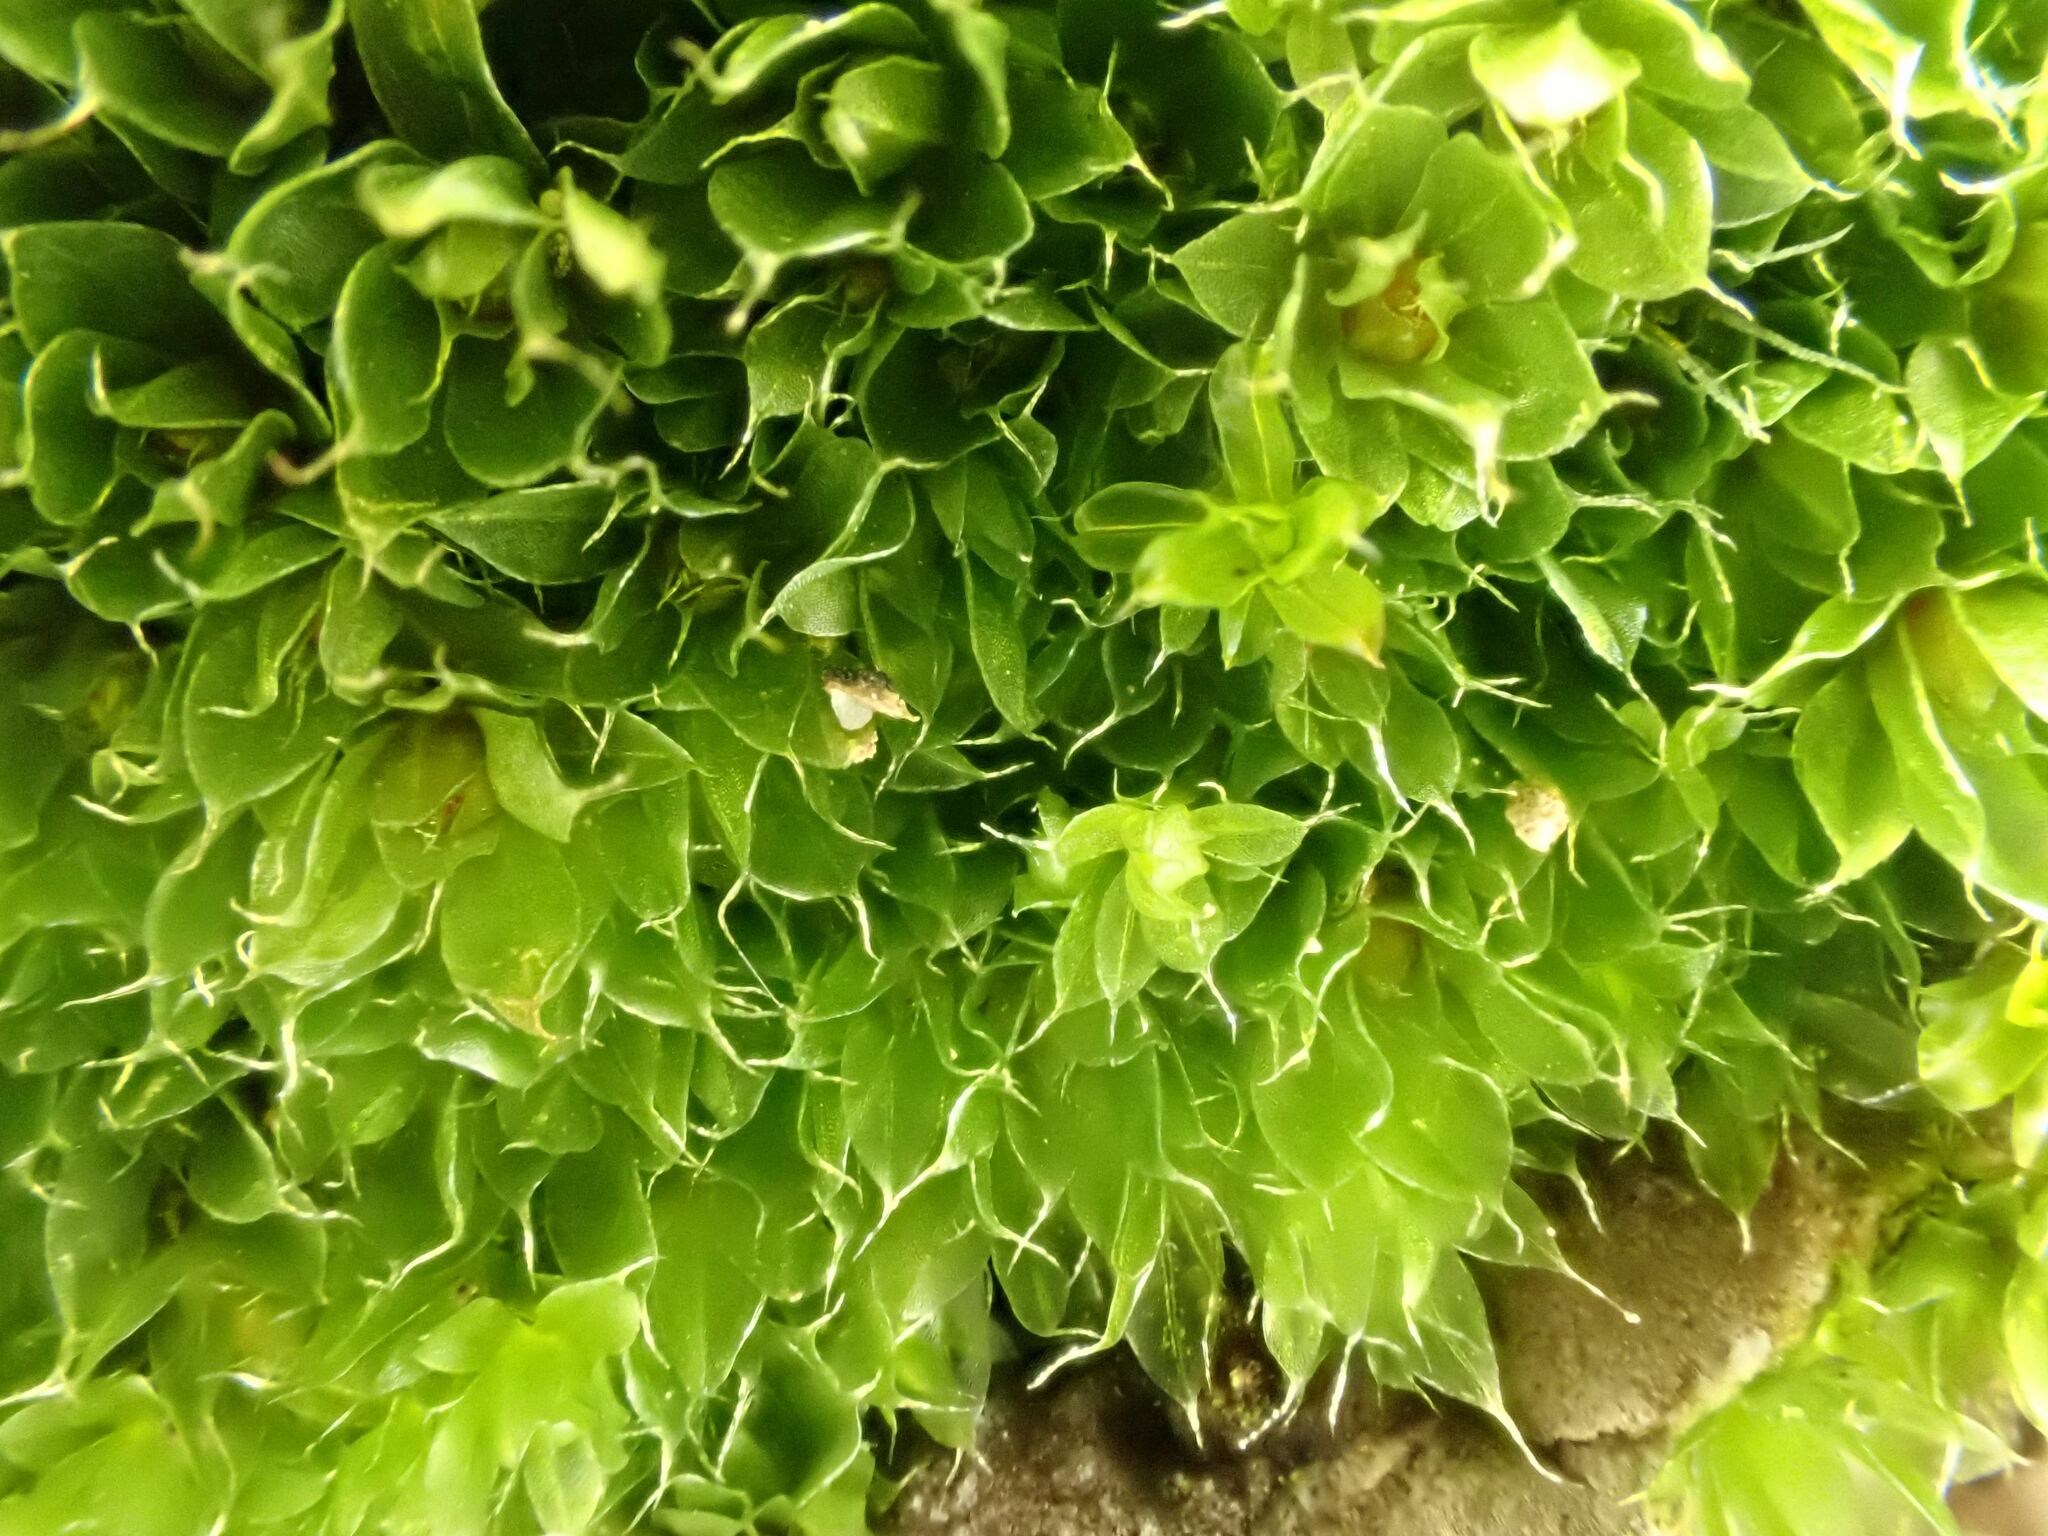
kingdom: Plantae
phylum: Bryophyta
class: Bryopsida
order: Bryales
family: Bryaceae
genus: Rosulabryum
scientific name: Rosulabryum capillare
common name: Capillary thread-moss
